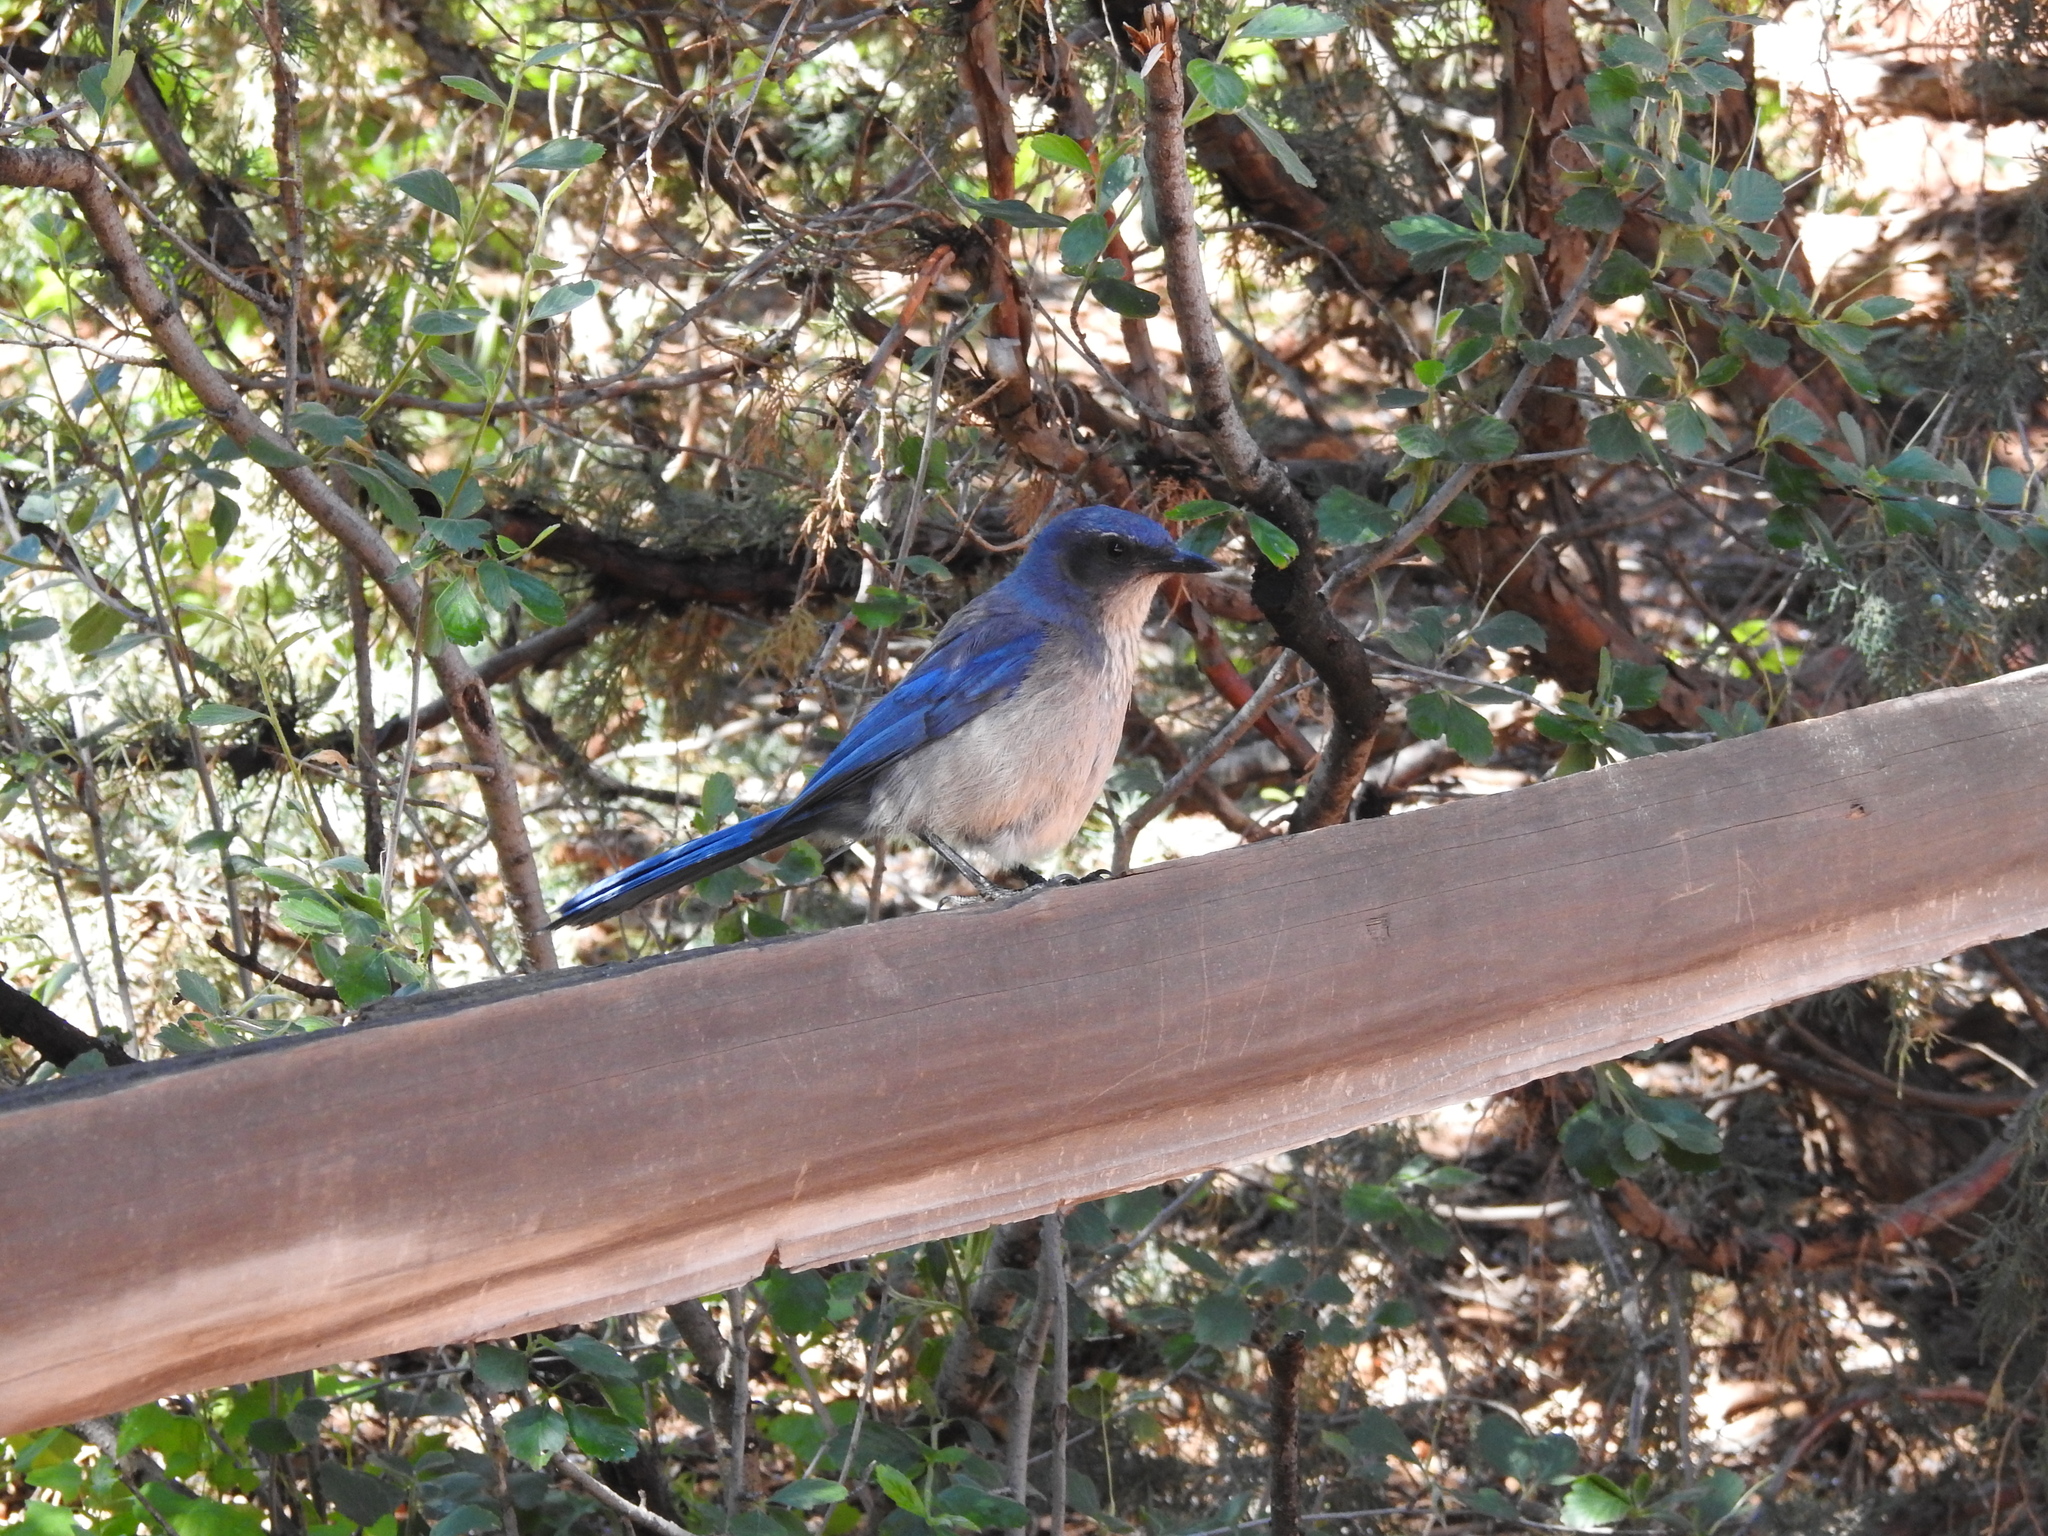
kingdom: Animalia
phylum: Chordata
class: Aves
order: Passeriformes
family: Corvidae
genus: Aphelocoma
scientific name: Aphelocoma woodhouseii
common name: Woodhouse's scrub-jay
